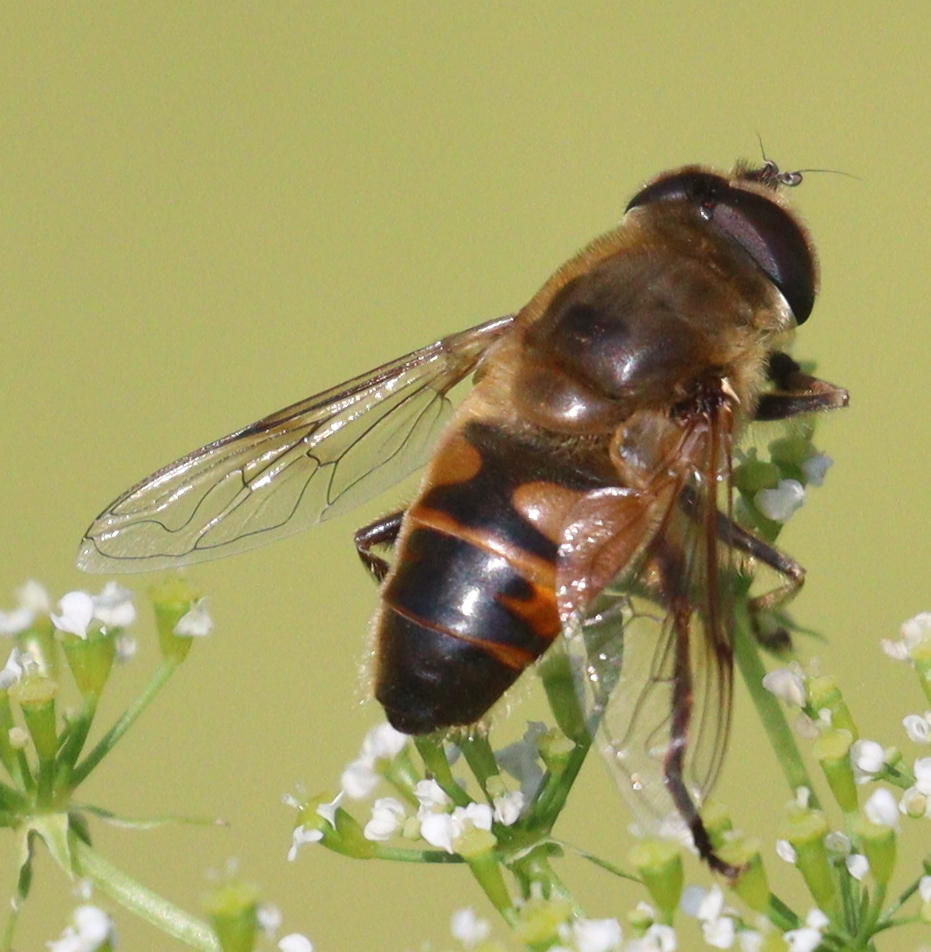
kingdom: Animalia
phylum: Arthropoda
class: Insecta
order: Diptera
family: Syrphidae
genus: Eristalis
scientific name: Eristalis tenax
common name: Drone fly
